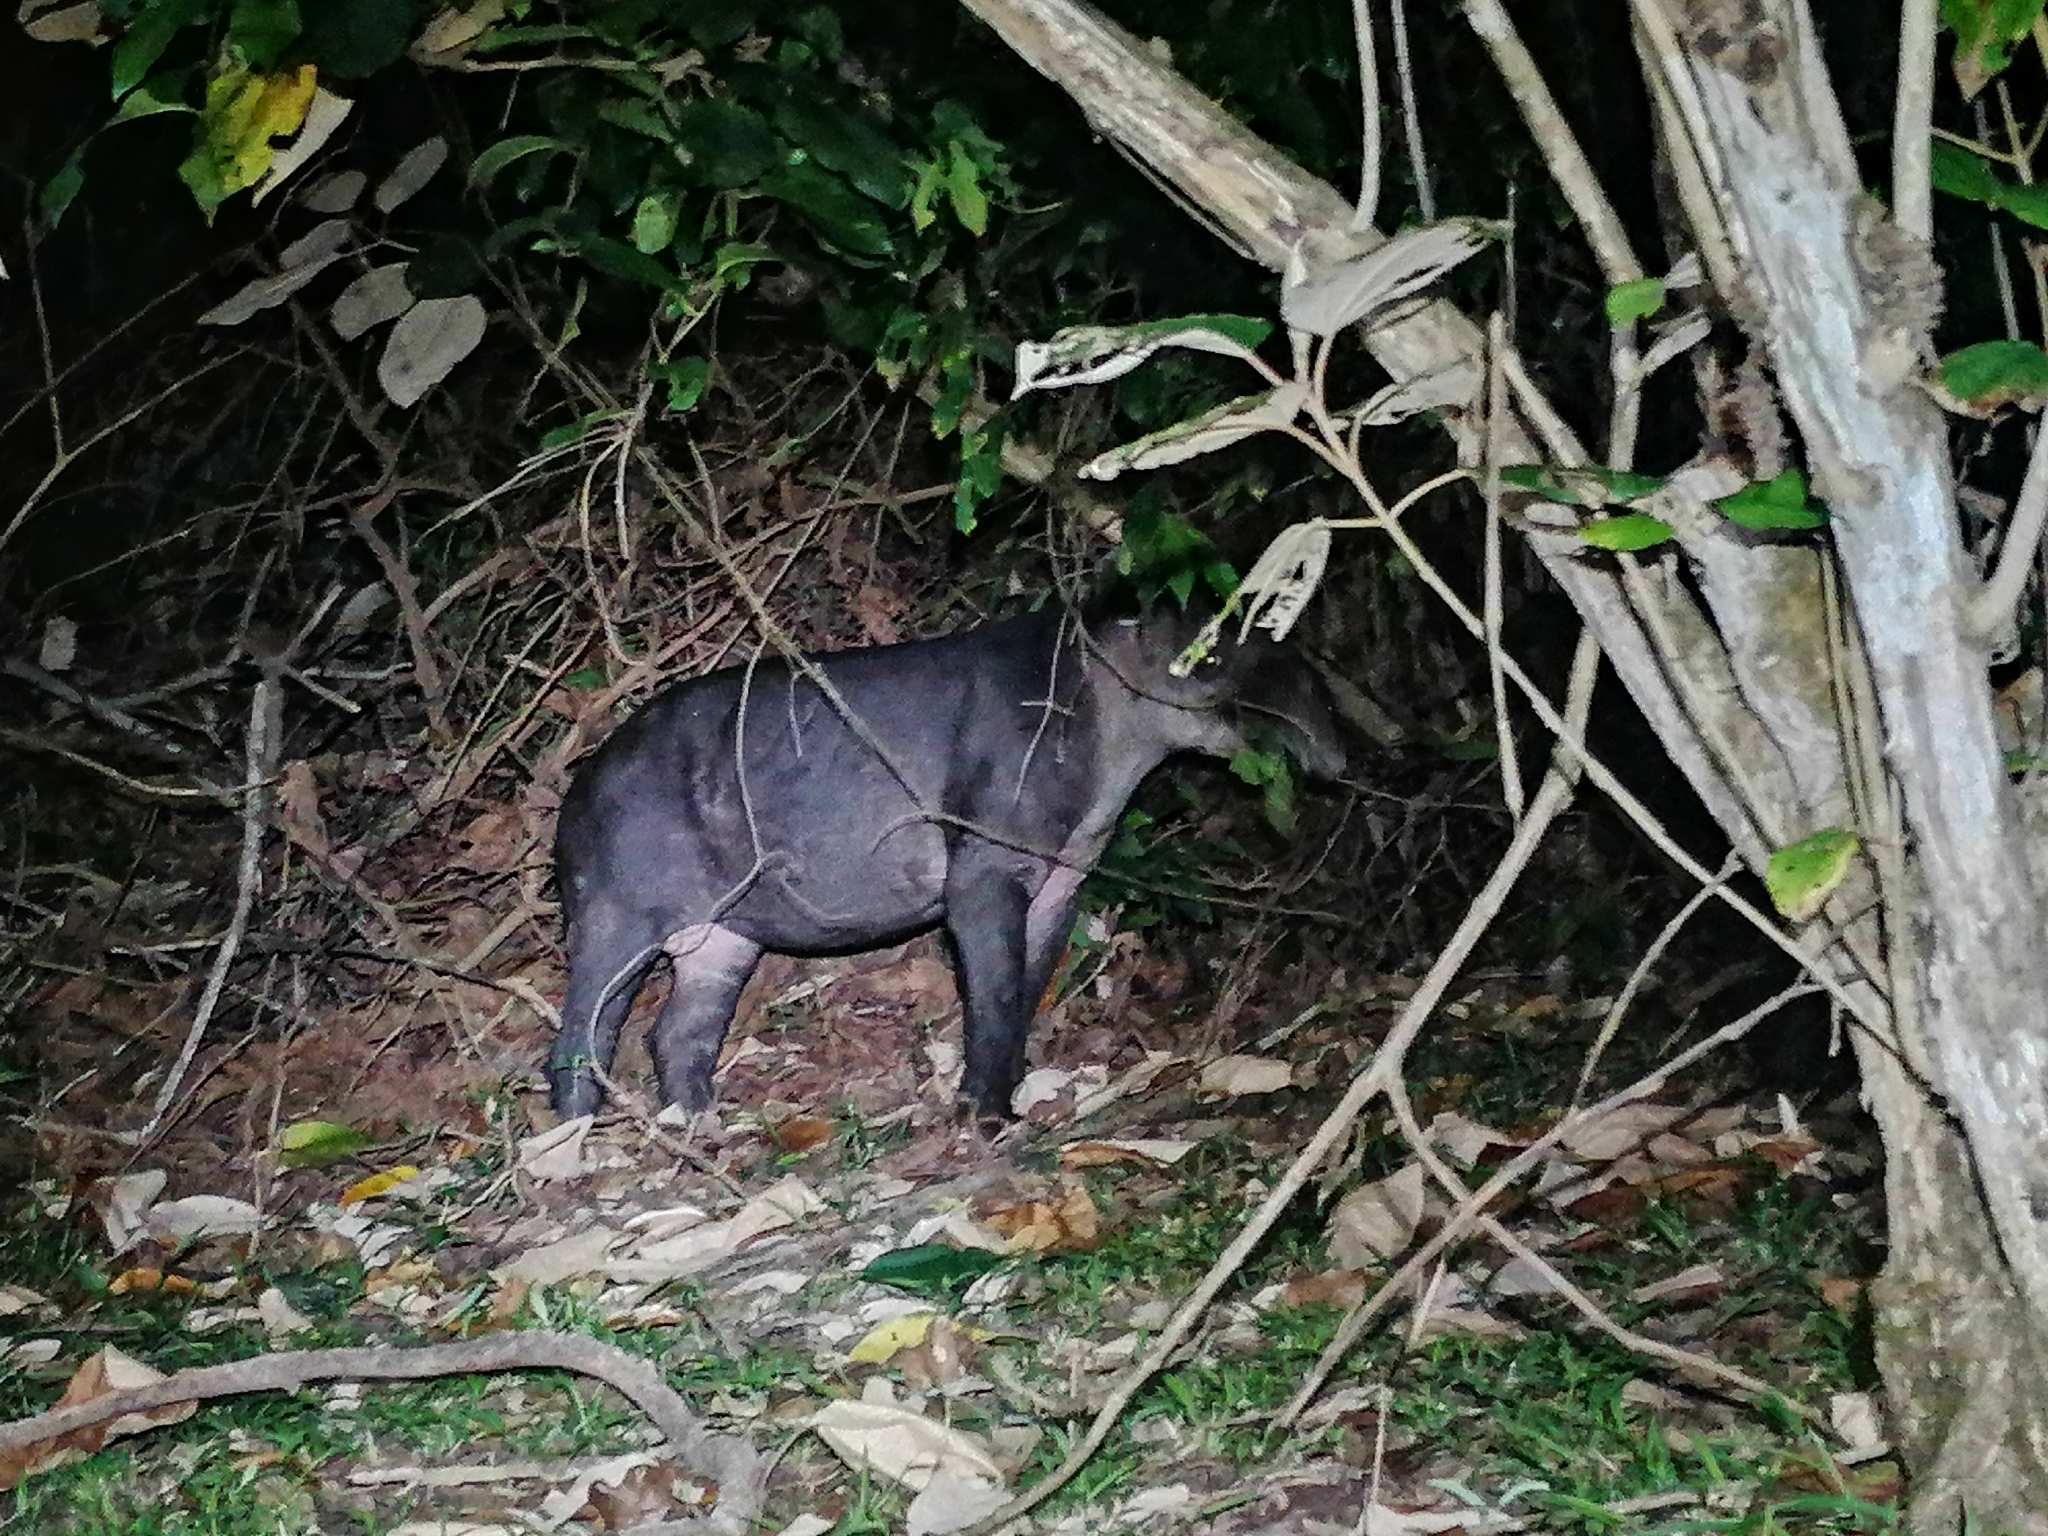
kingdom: Animalia
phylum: Chordata
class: Mammalia
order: Perissodactyla
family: Tapiridae
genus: Tapirella
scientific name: Tapirella bairdii
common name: Baird's tapir
